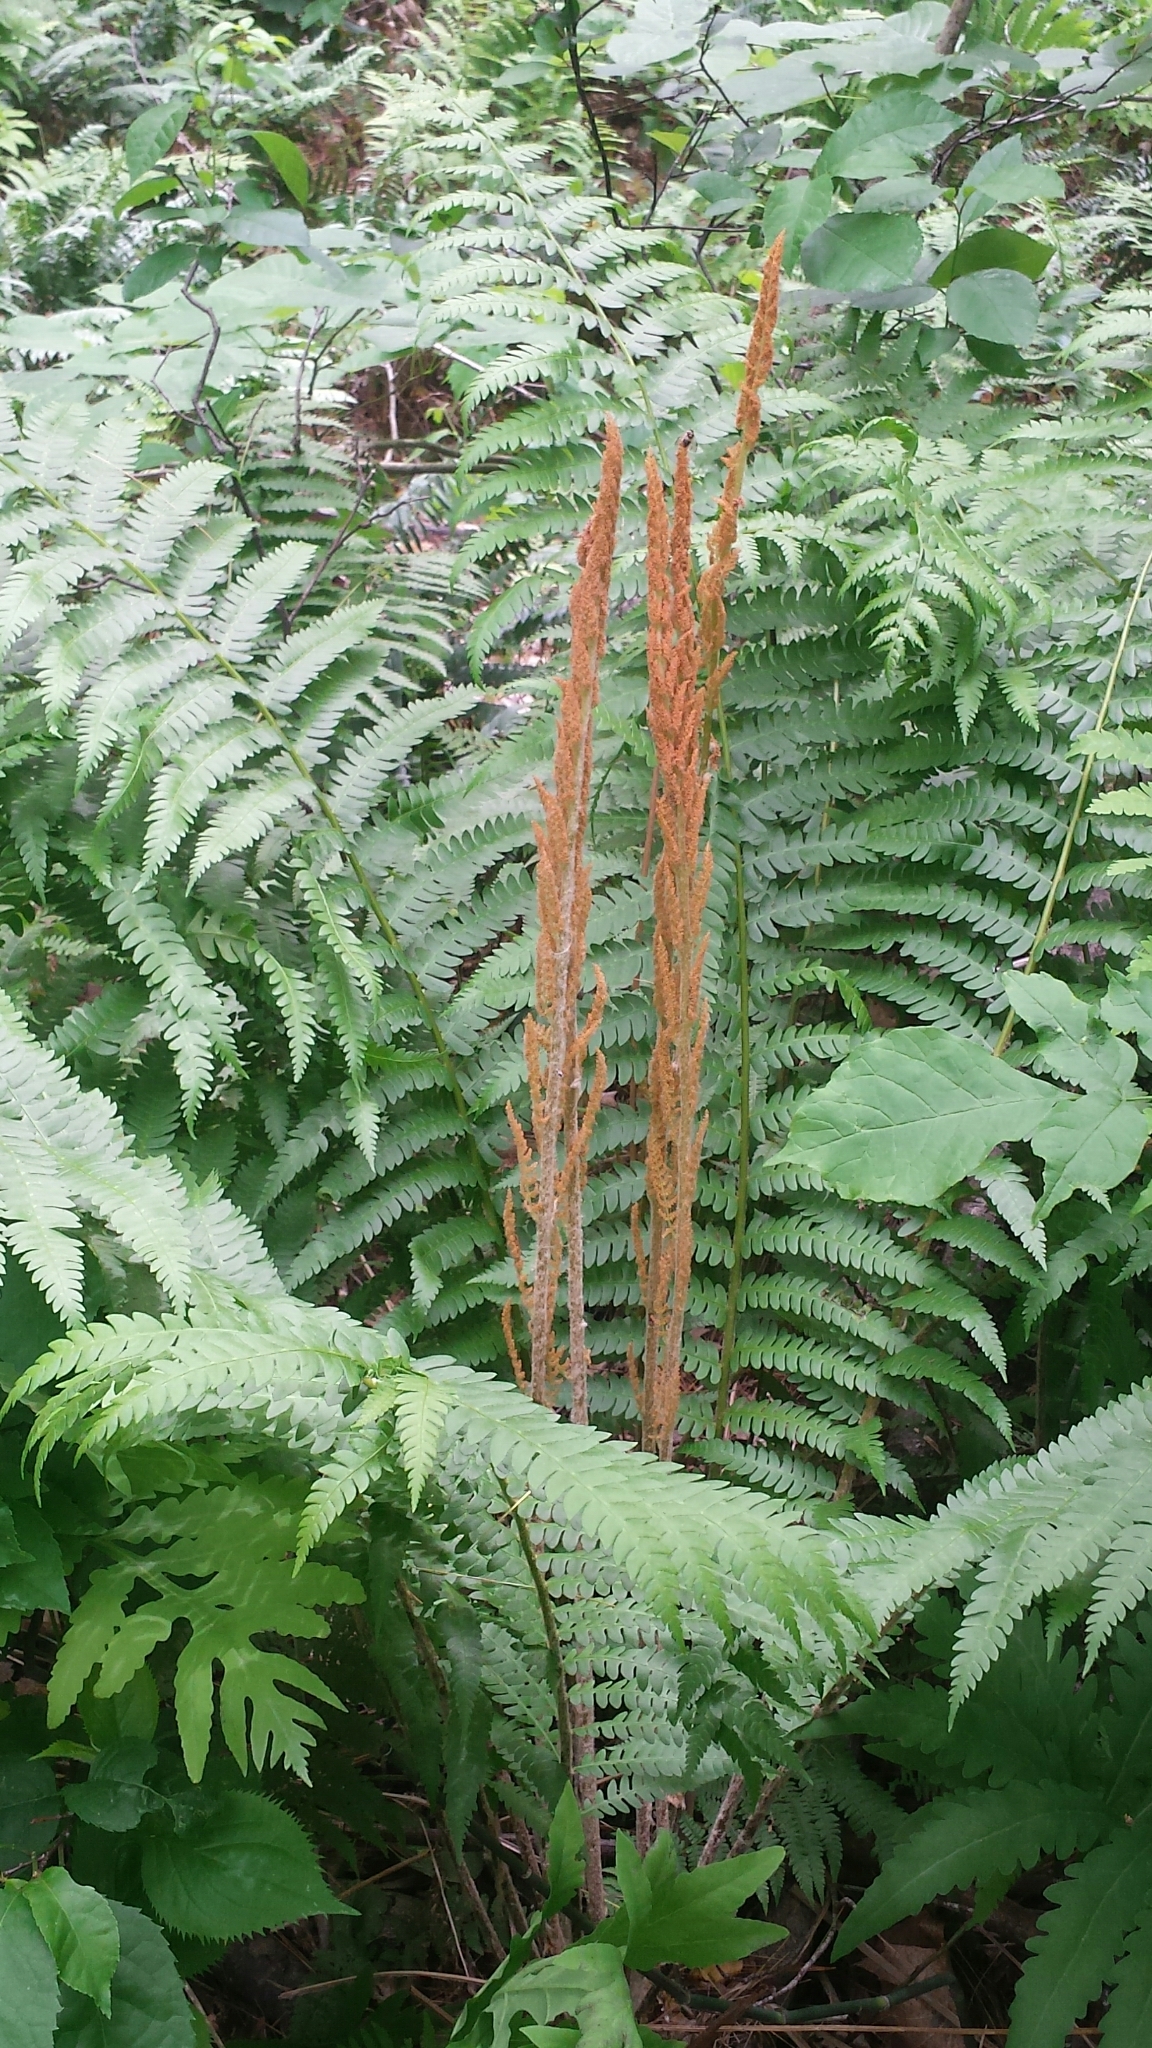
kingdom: Plantae
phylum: Tracheophyta
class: Polypodiopsida
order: Osmundales
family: Osmundaceae
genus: Osmundastrum
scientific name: Osmundastrum cinnamomeum
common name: Cinnamon fern
